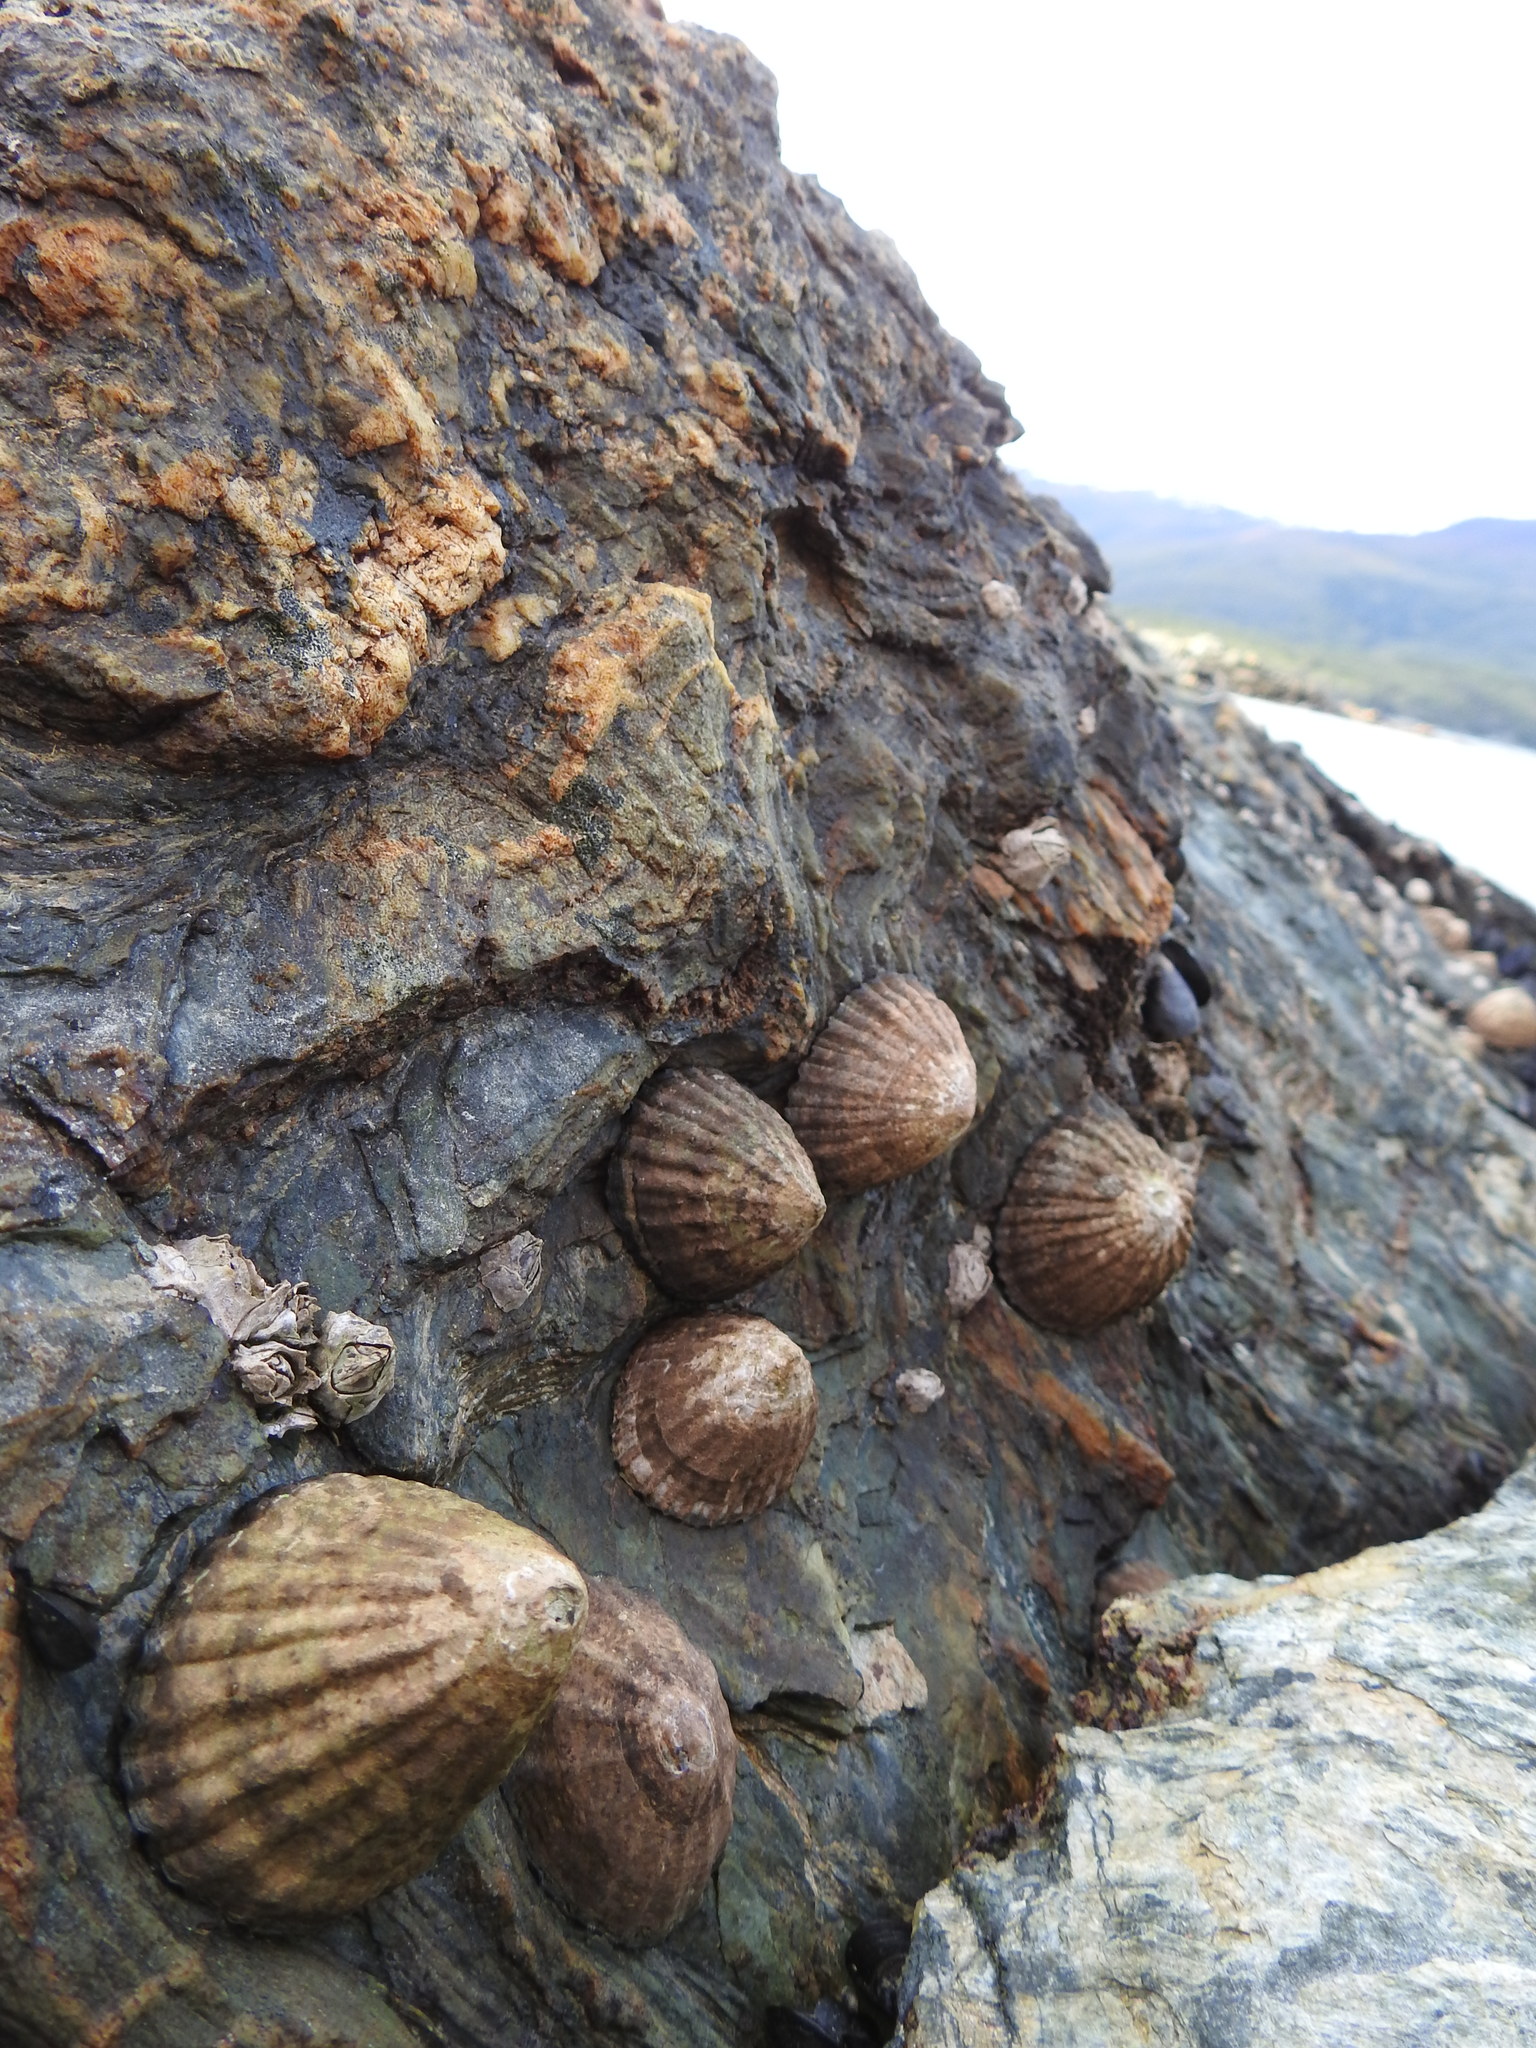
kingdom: Animalia
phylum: Mollusca
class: Gastropoda
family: Nacellidae
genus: Nacella
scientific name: Nacella magellanica
